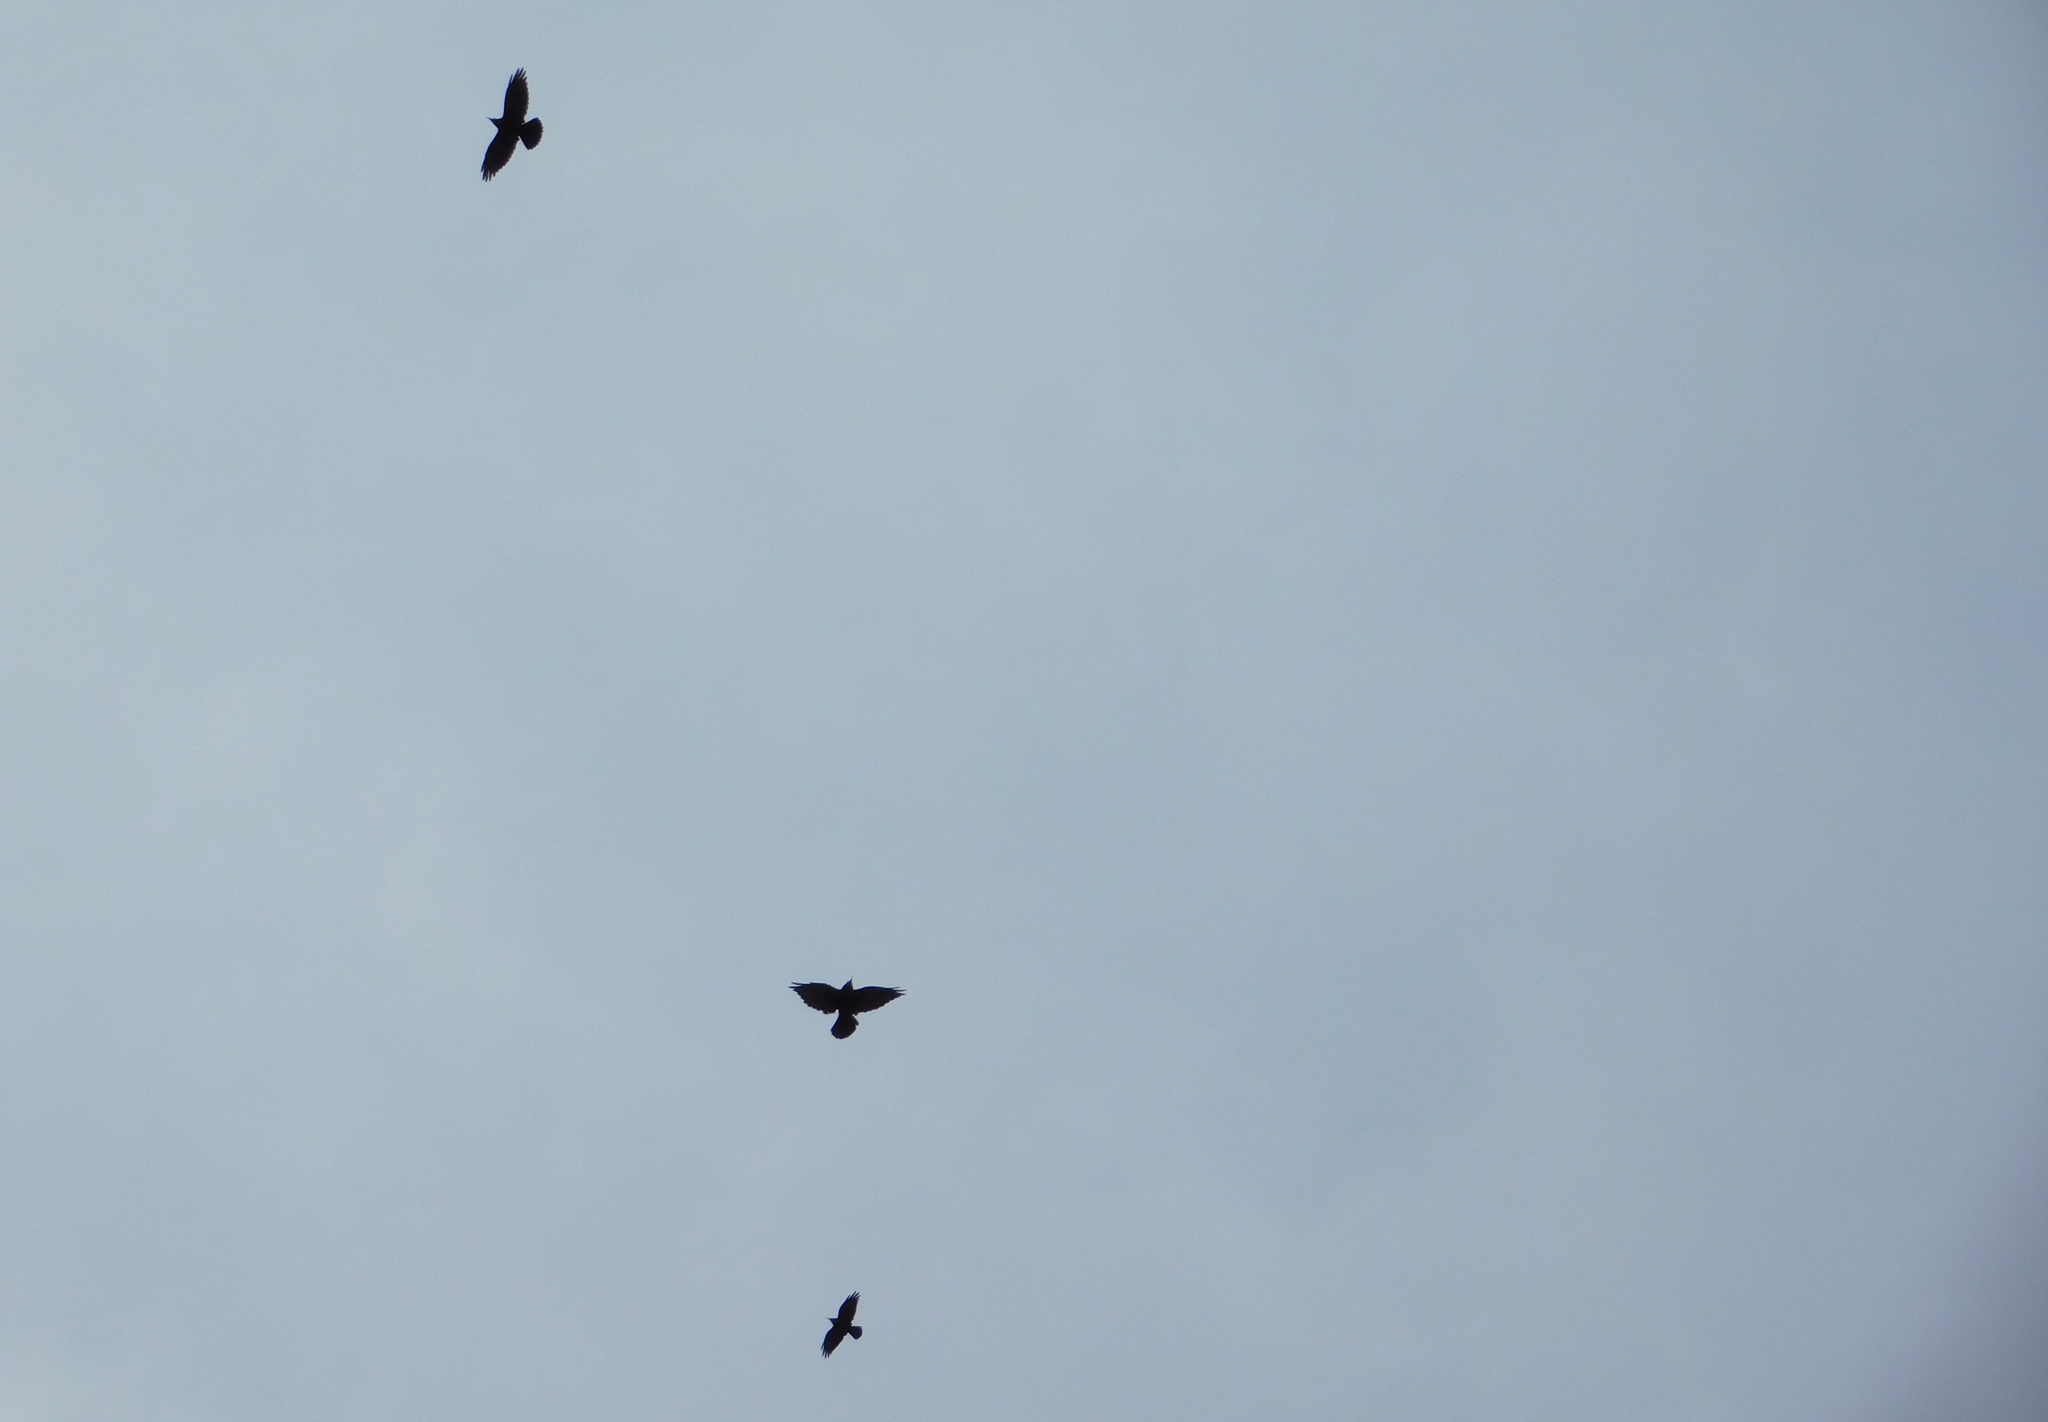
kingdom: Animalia
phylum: Chordata
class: Aves
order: Passeriformes
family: Corvidae
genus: Corvus
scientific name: Corvus frugilegus
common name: Rook
